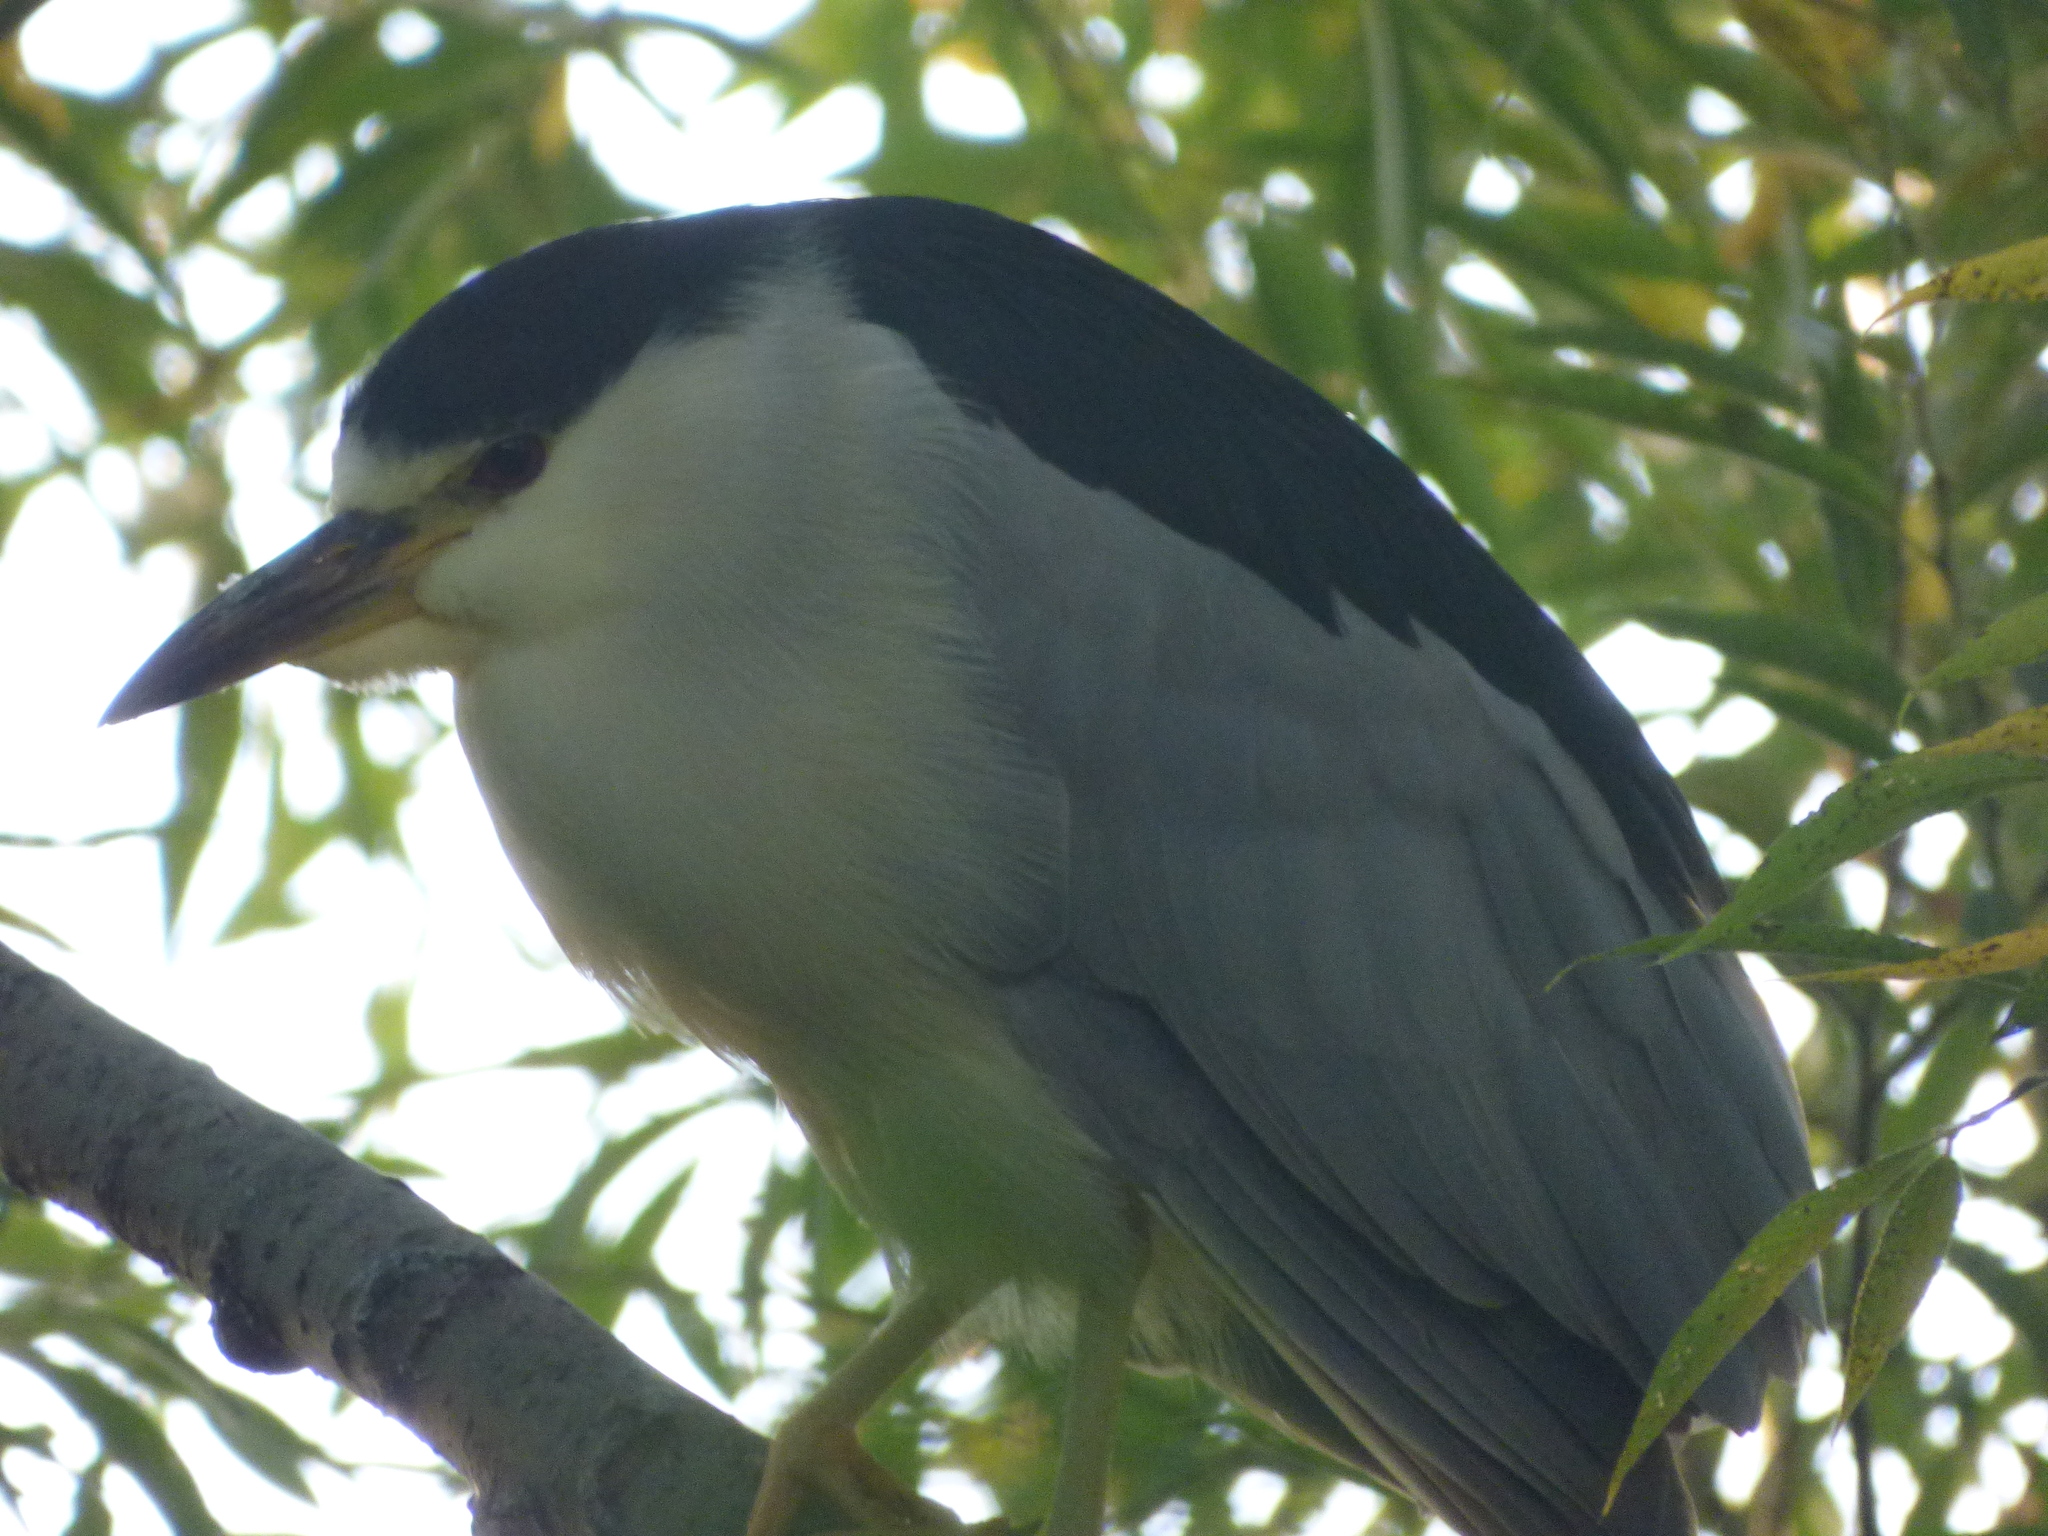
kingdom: Animalia
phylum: Chordata
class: Aves
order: Pelecaniformes
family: Ardeidae
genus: Nycticorax
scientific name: Nycticorax nycticorax
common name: Black-crowned night heron
